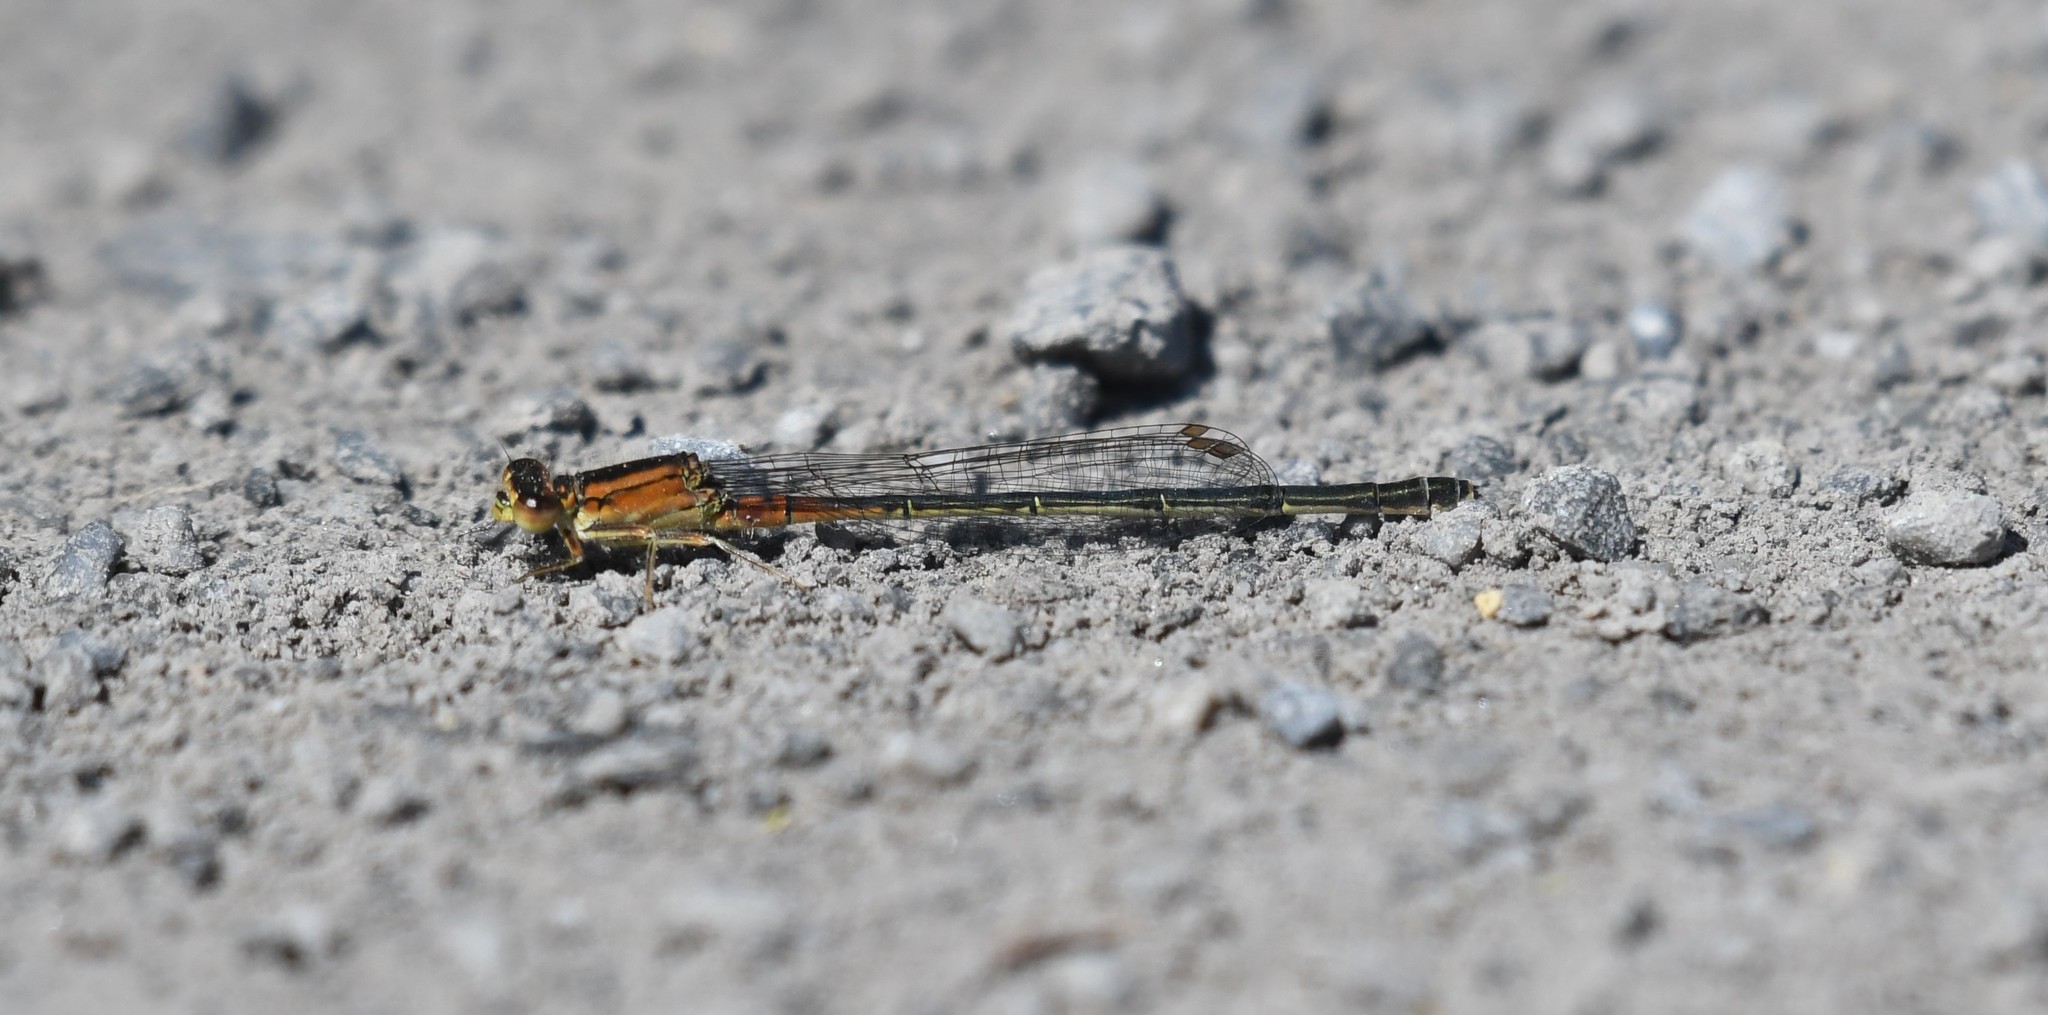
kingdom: Animalia
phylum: Arthropoda
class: Insecta
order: Odonata
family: Coenagrionidae
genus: Ischnura
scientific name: Ischnura verticalis
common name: Eastern forktail
